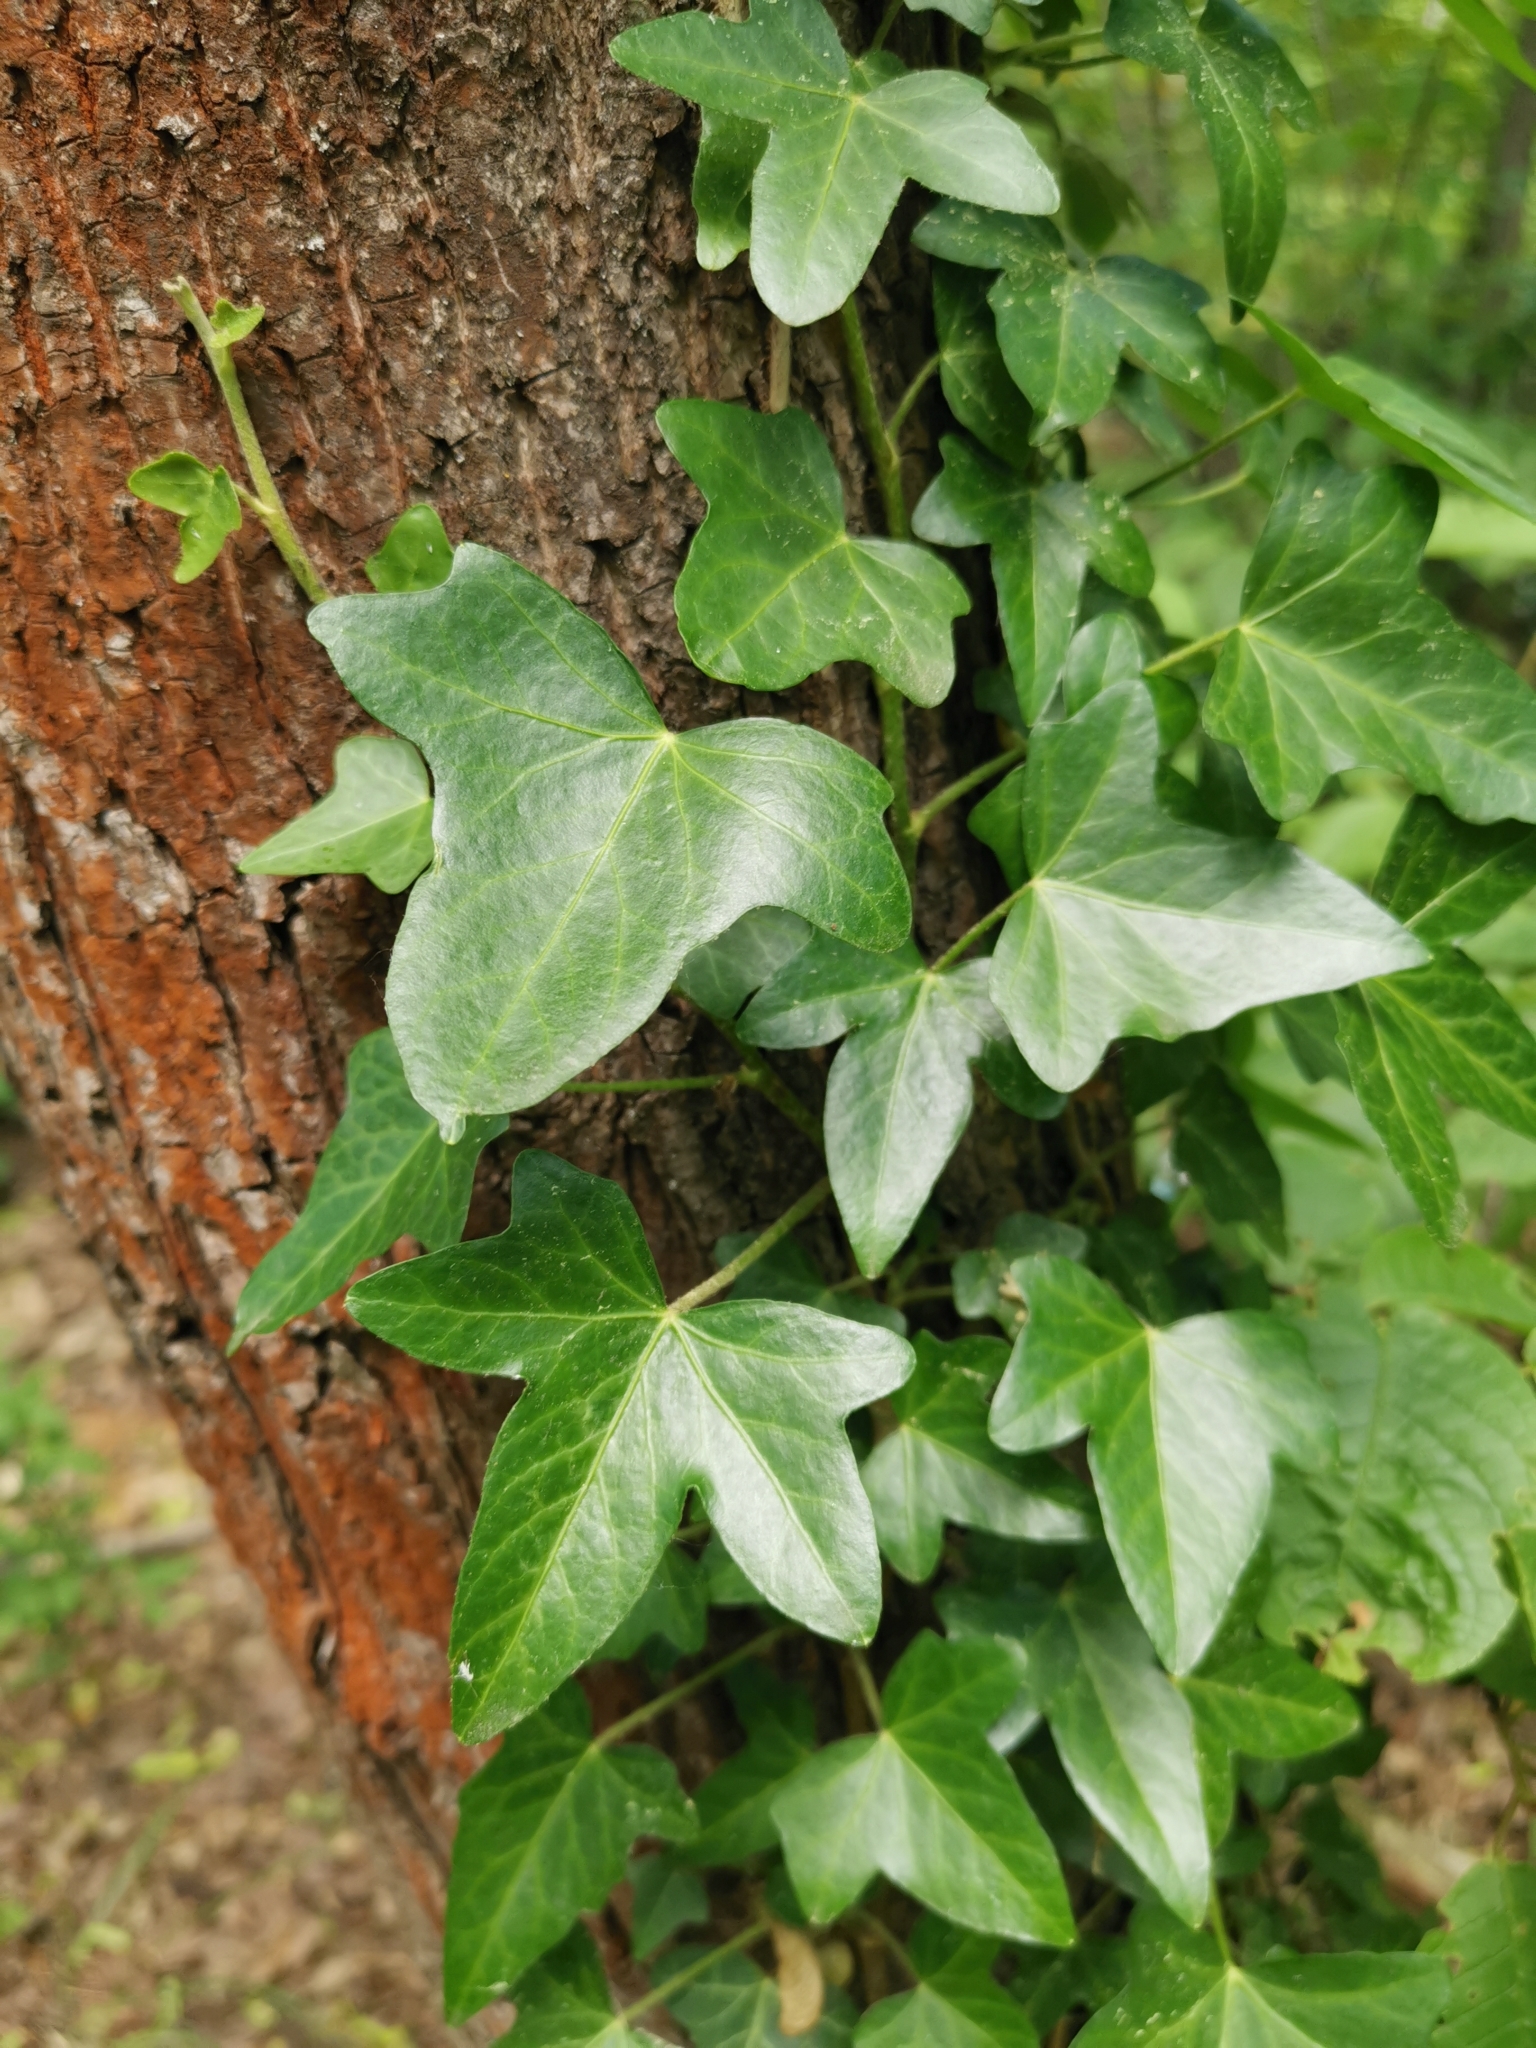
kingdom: Plantae
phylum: Tracheophyta
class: Magnoliopsida
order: Apiales
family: Araliaceae
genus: Hedera
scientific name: Hedera helix
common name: Ivy
